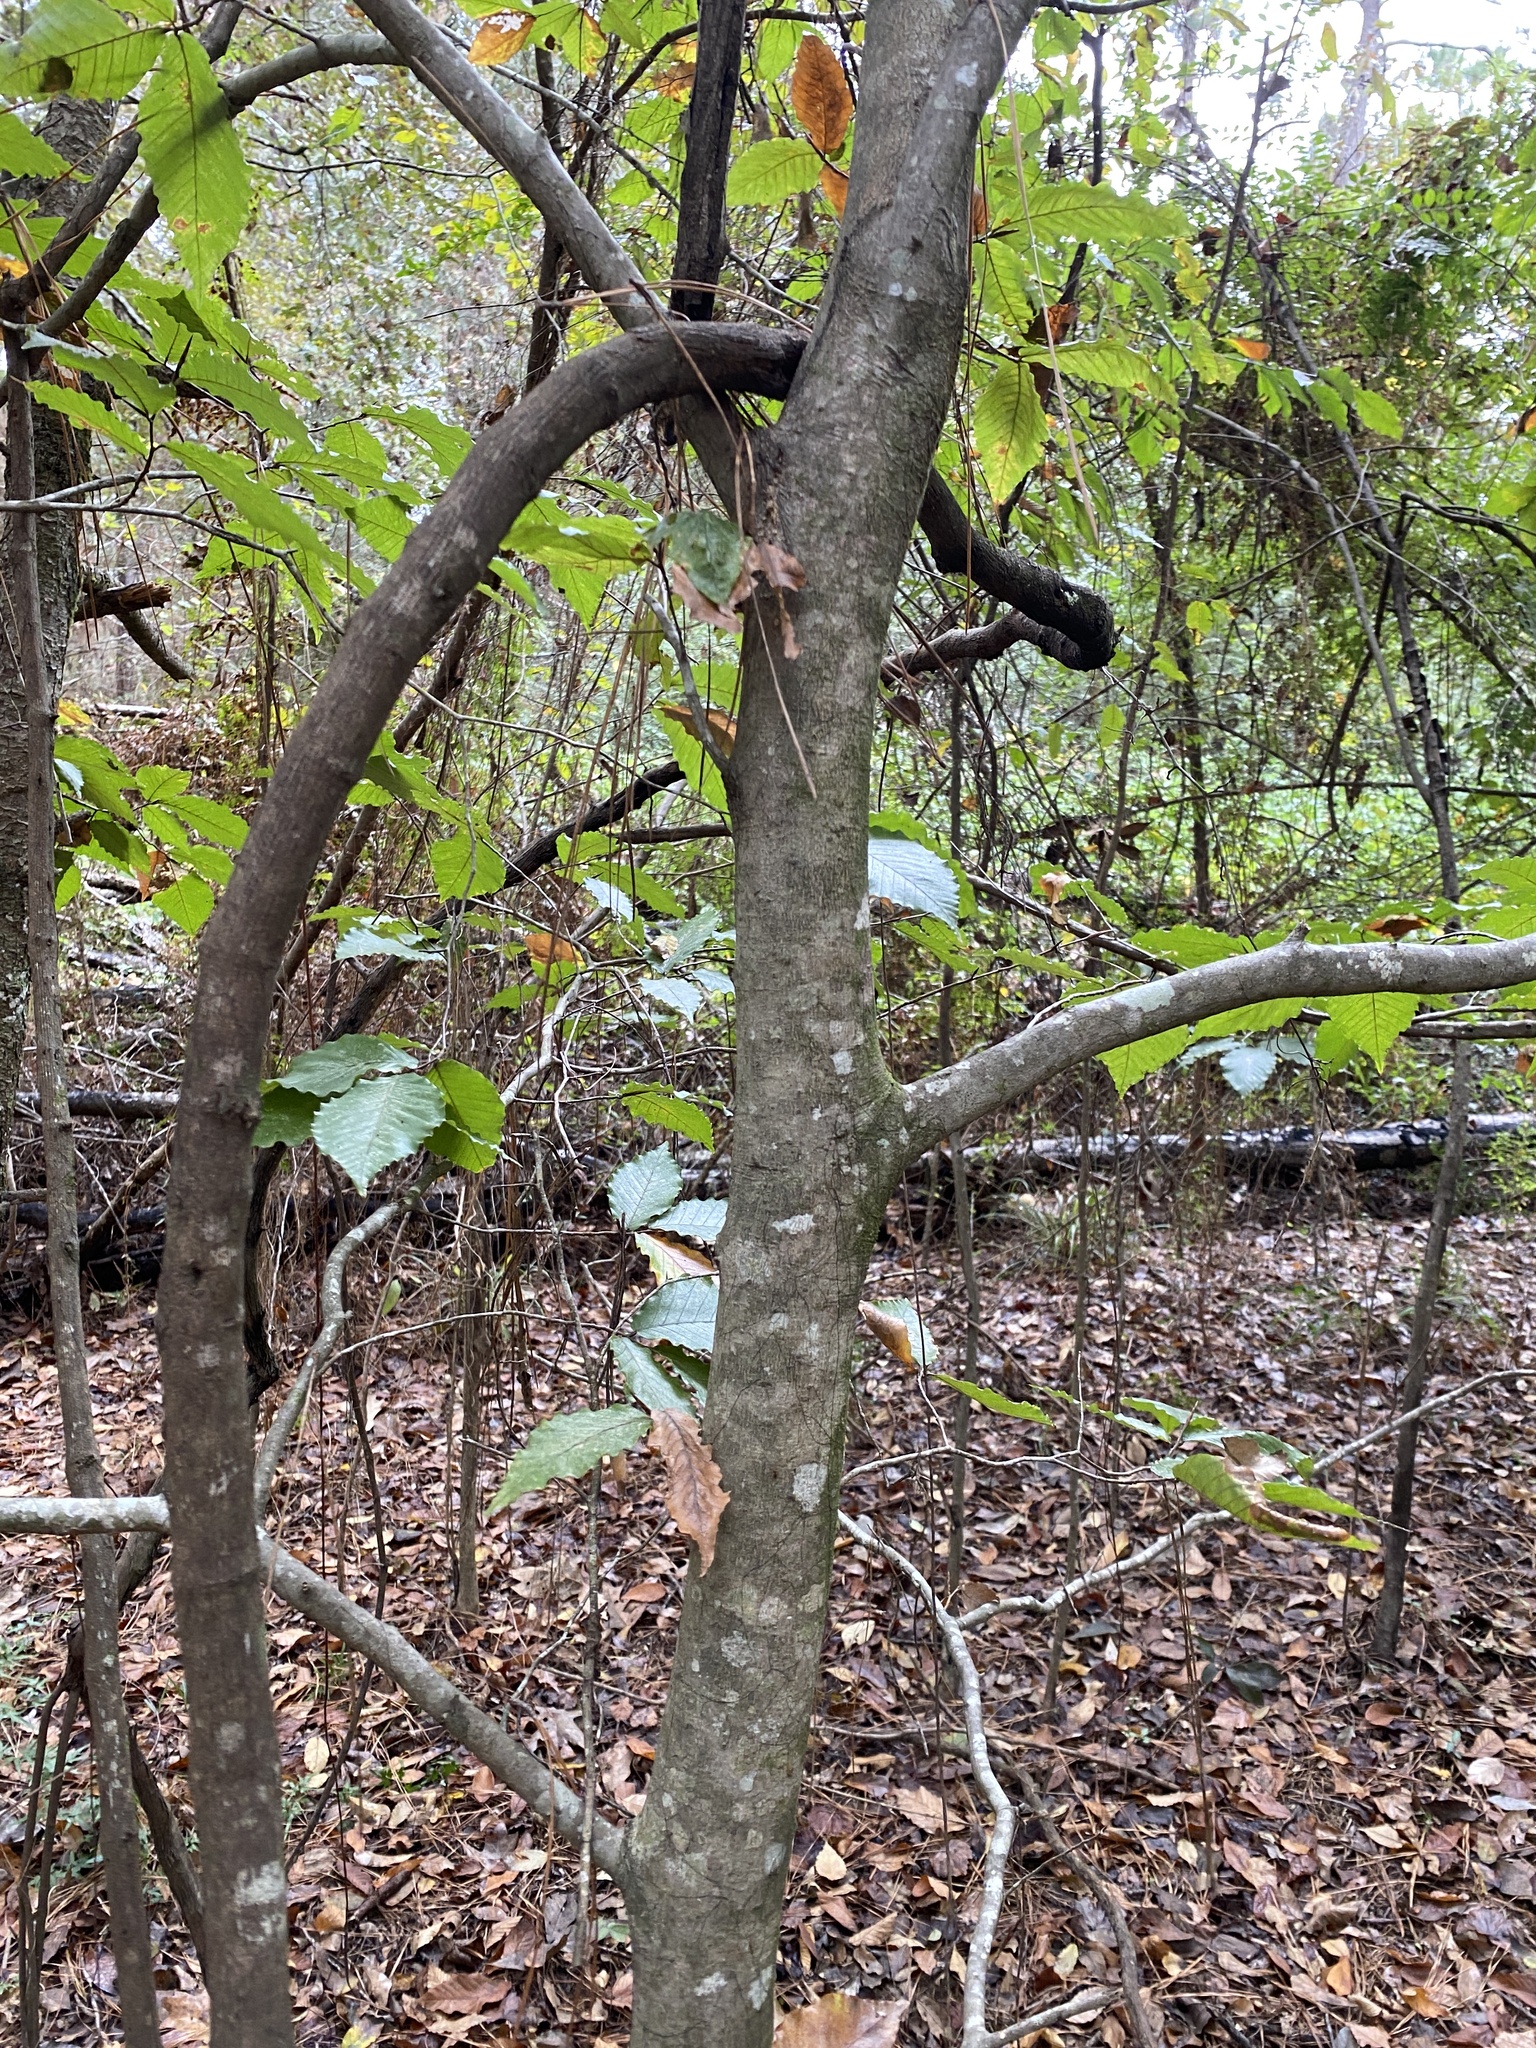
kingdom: Plantae
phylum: Tracheophyta
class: Magnoliopsida
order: Fagales
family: Fagaceae
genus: Fagus
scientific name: Fagus grandifolia
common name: American beech
